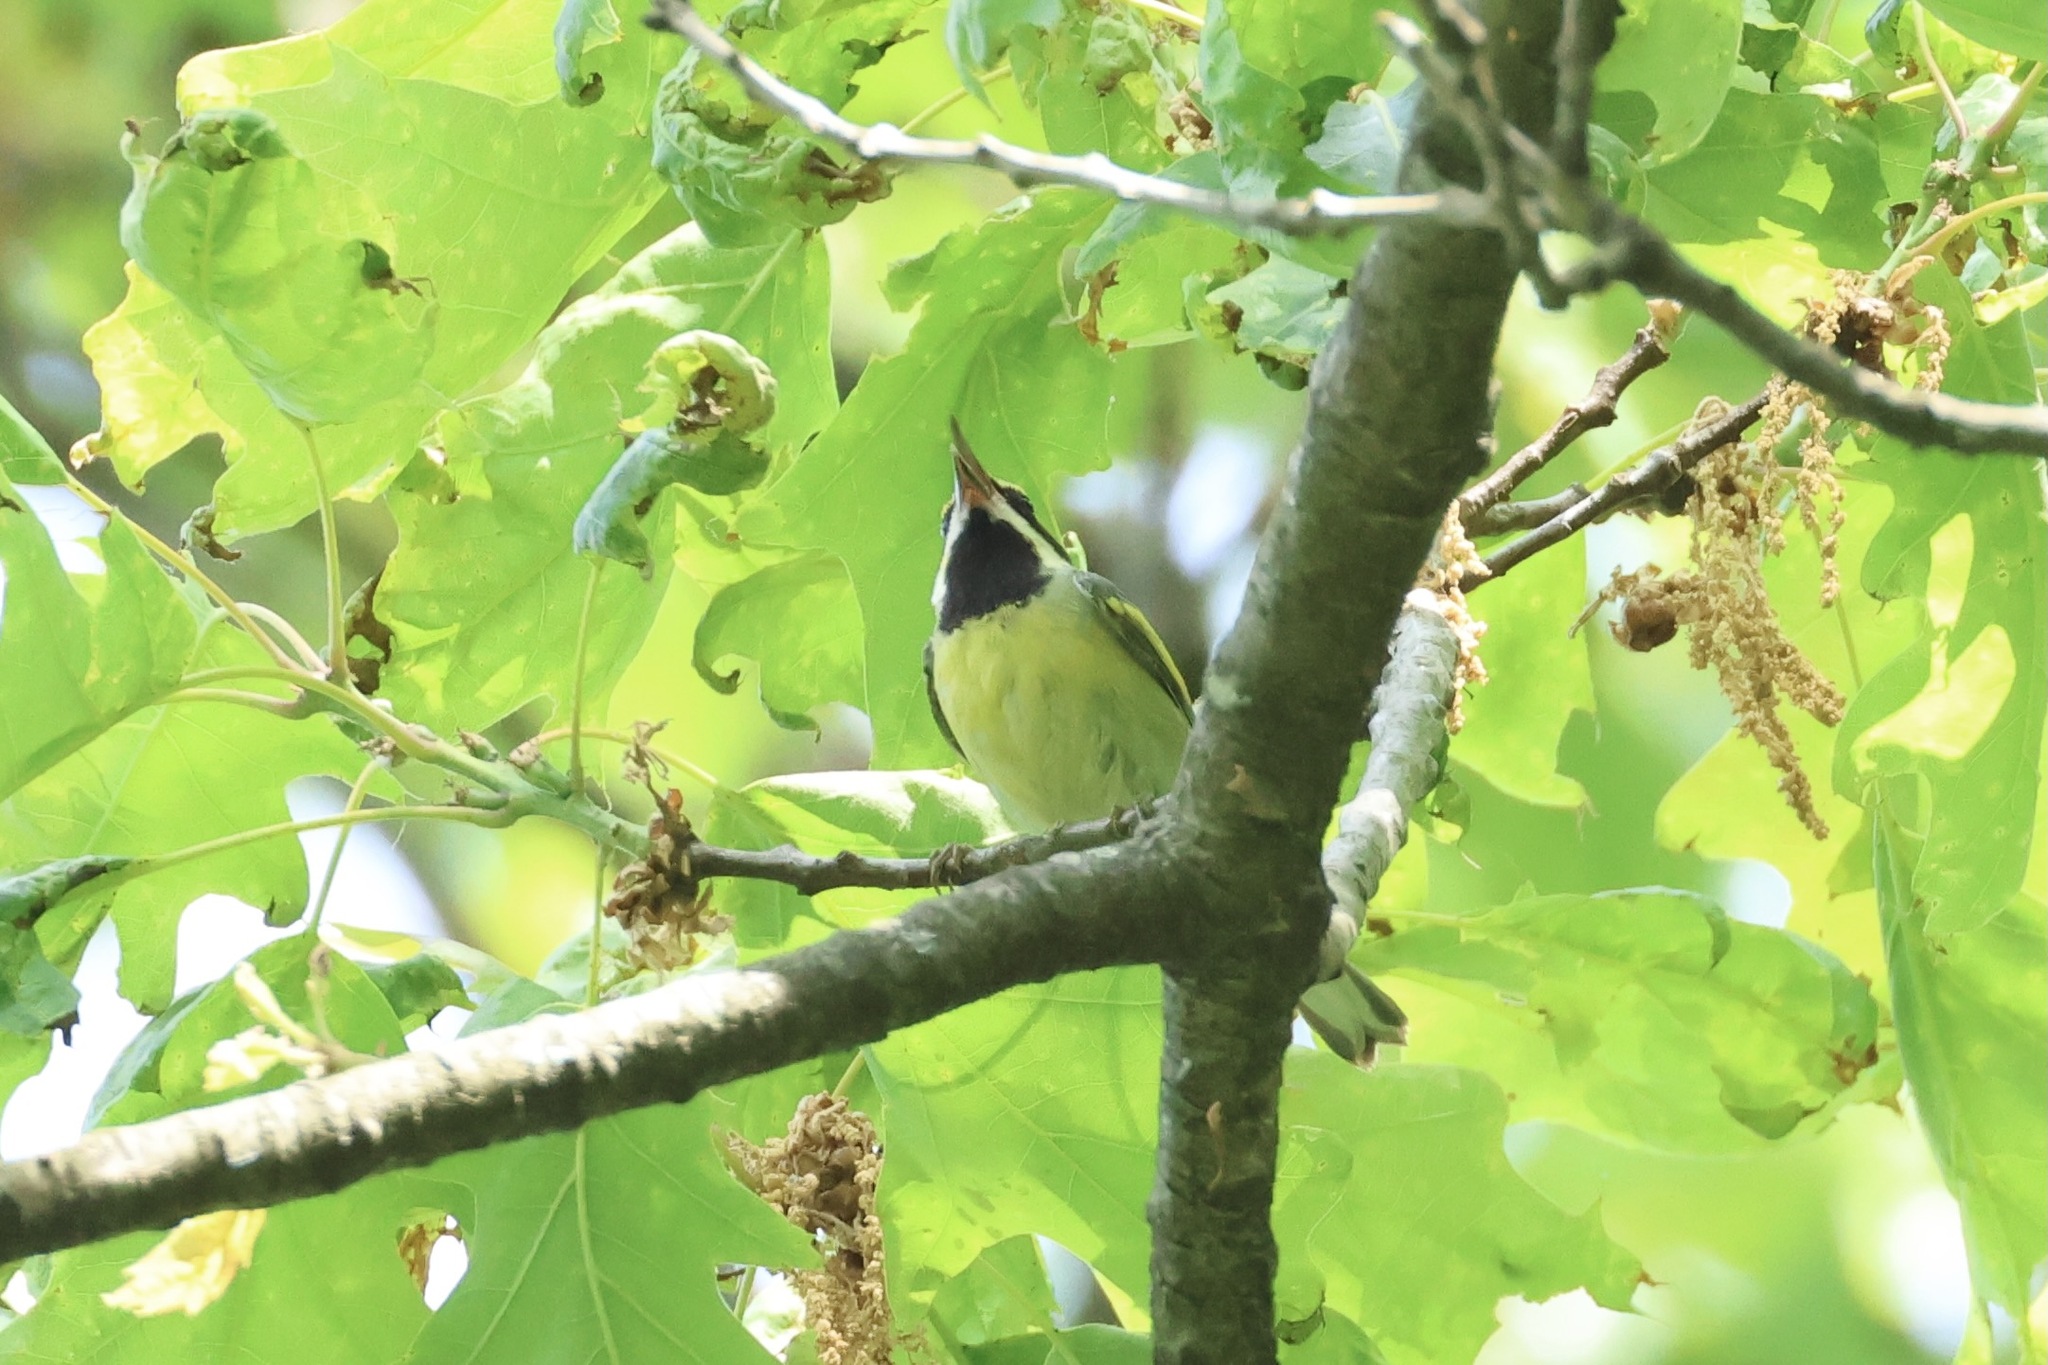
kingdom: Animalia
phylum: Chordata
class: Aves
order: Passeriformes
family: Parulidae
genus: Vermivora
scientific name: Vermivora
